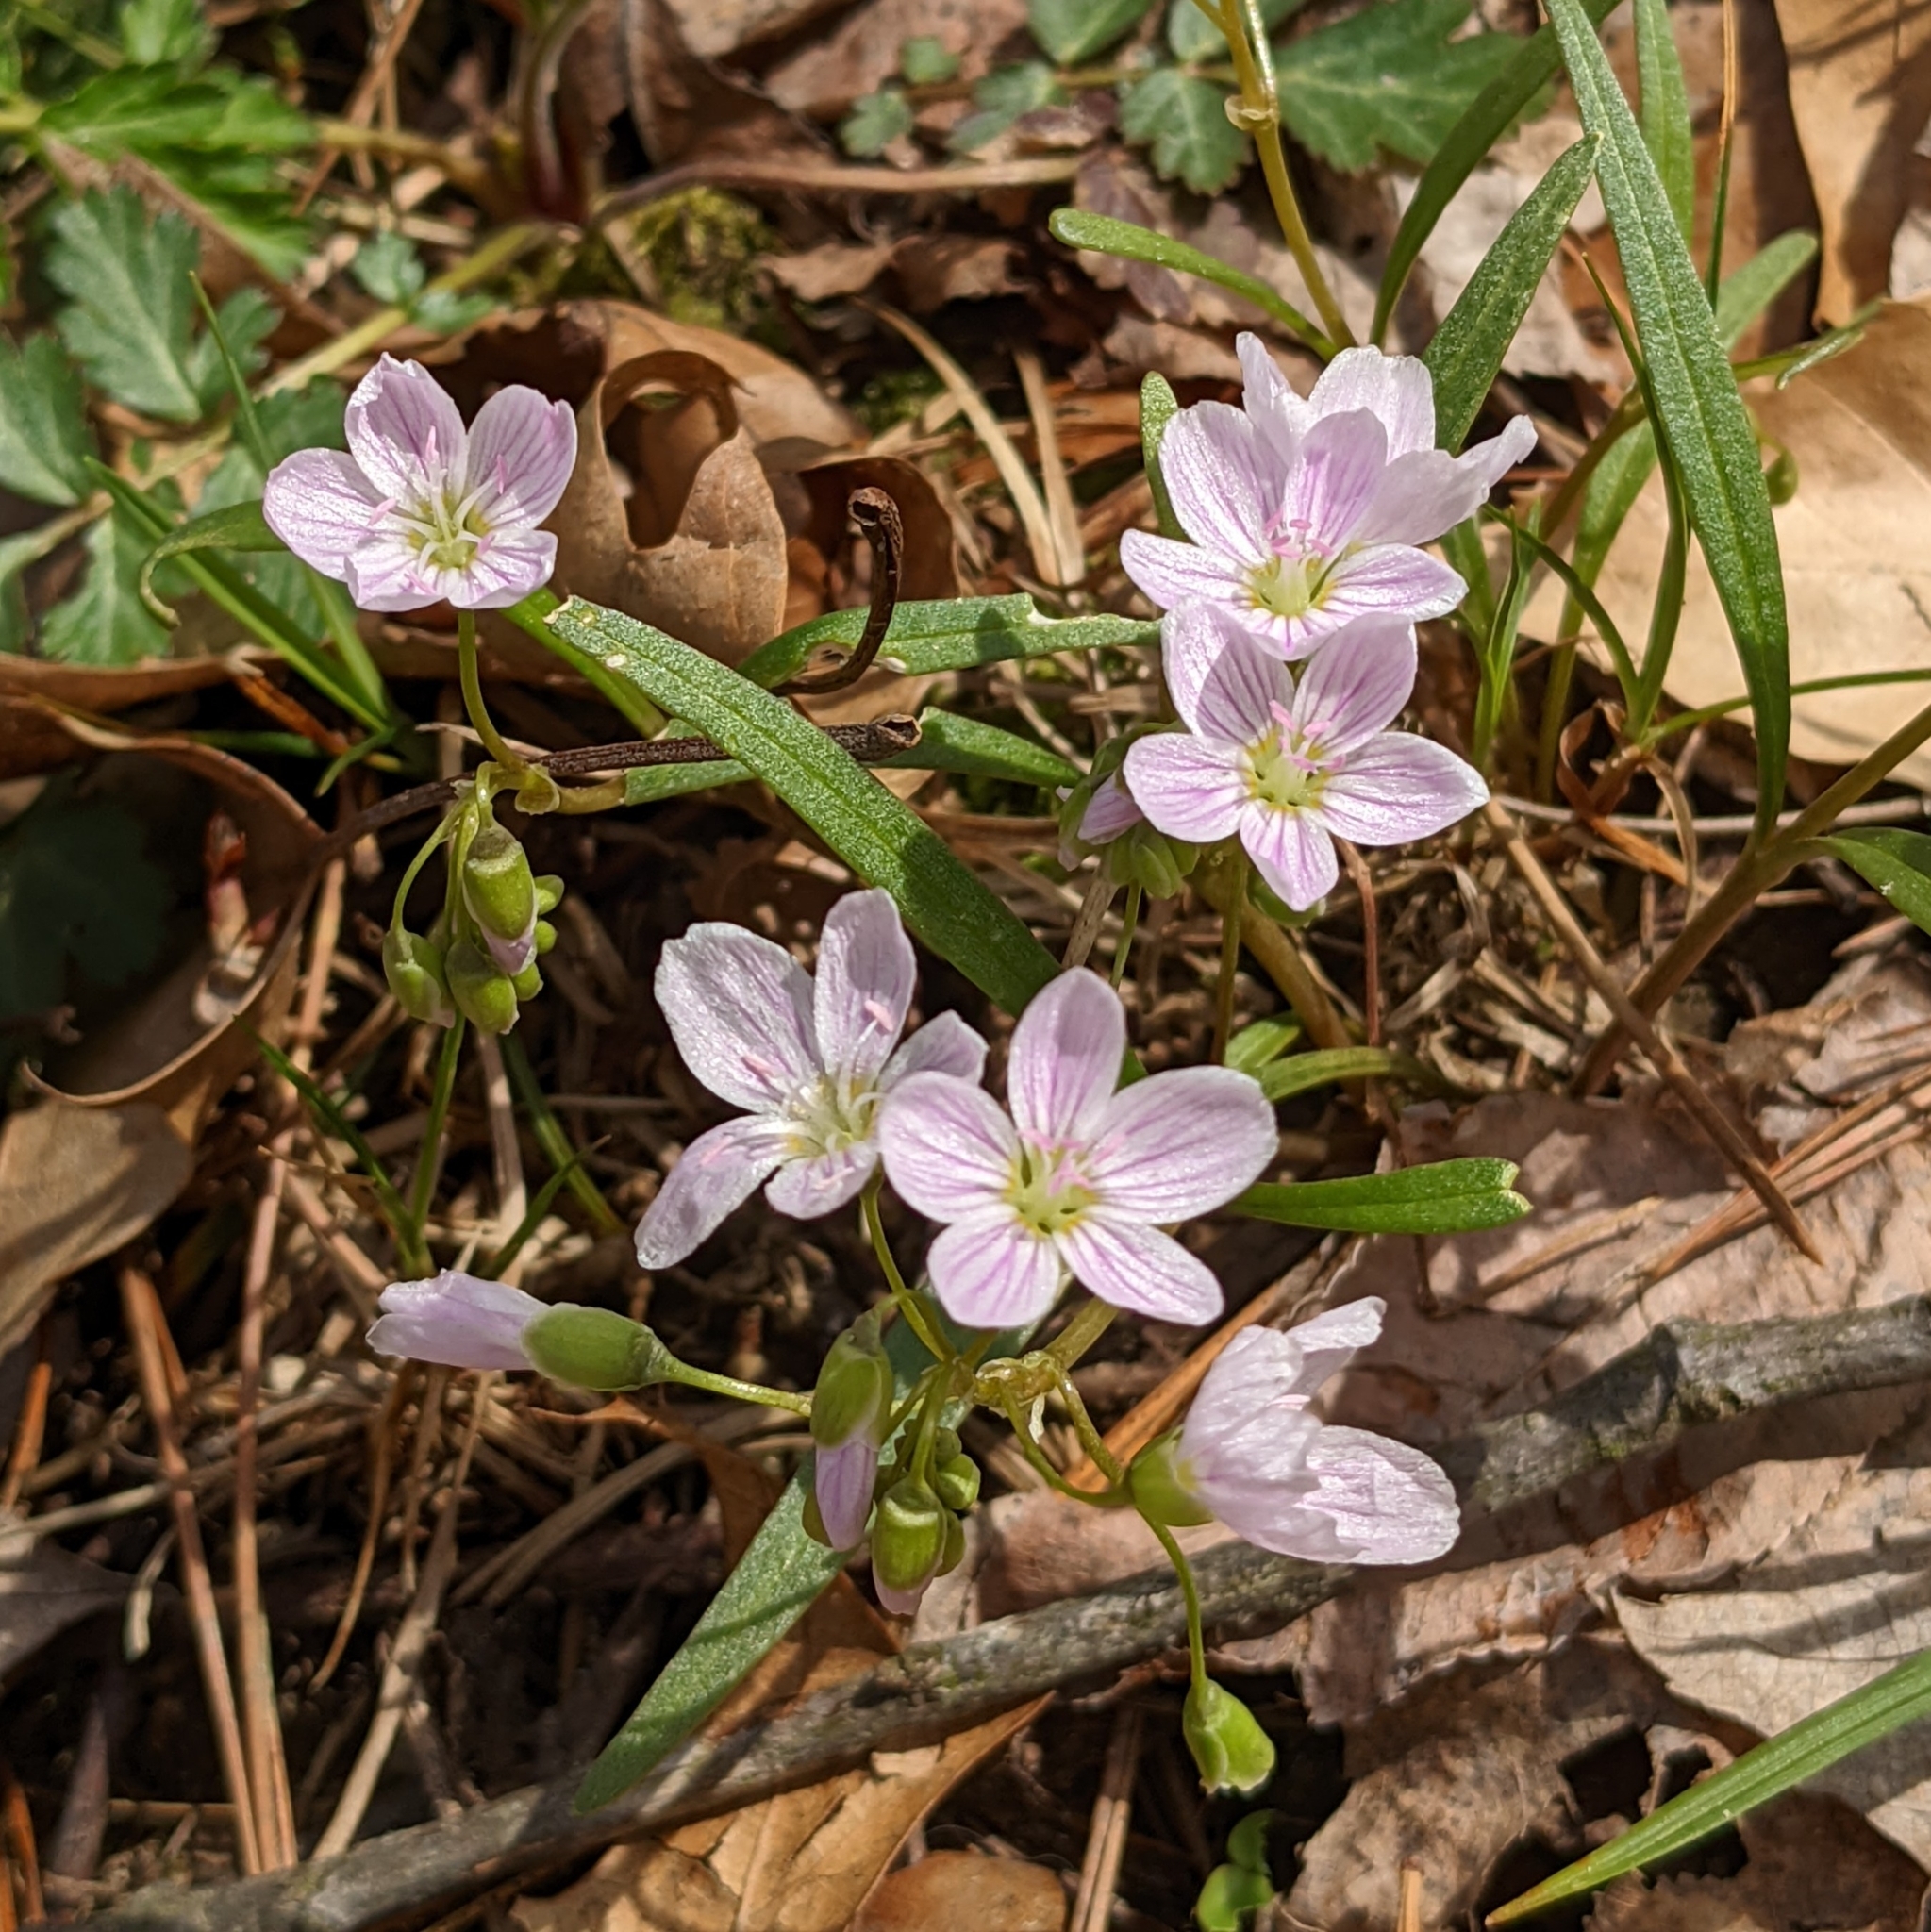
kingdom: Plantae
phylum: Tracheophyta
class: Magnoliopsida
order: Caryophyllales
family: Montiaceae
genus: Claytonia
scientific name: Claytonia virginica
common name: Virginia springbeauty
